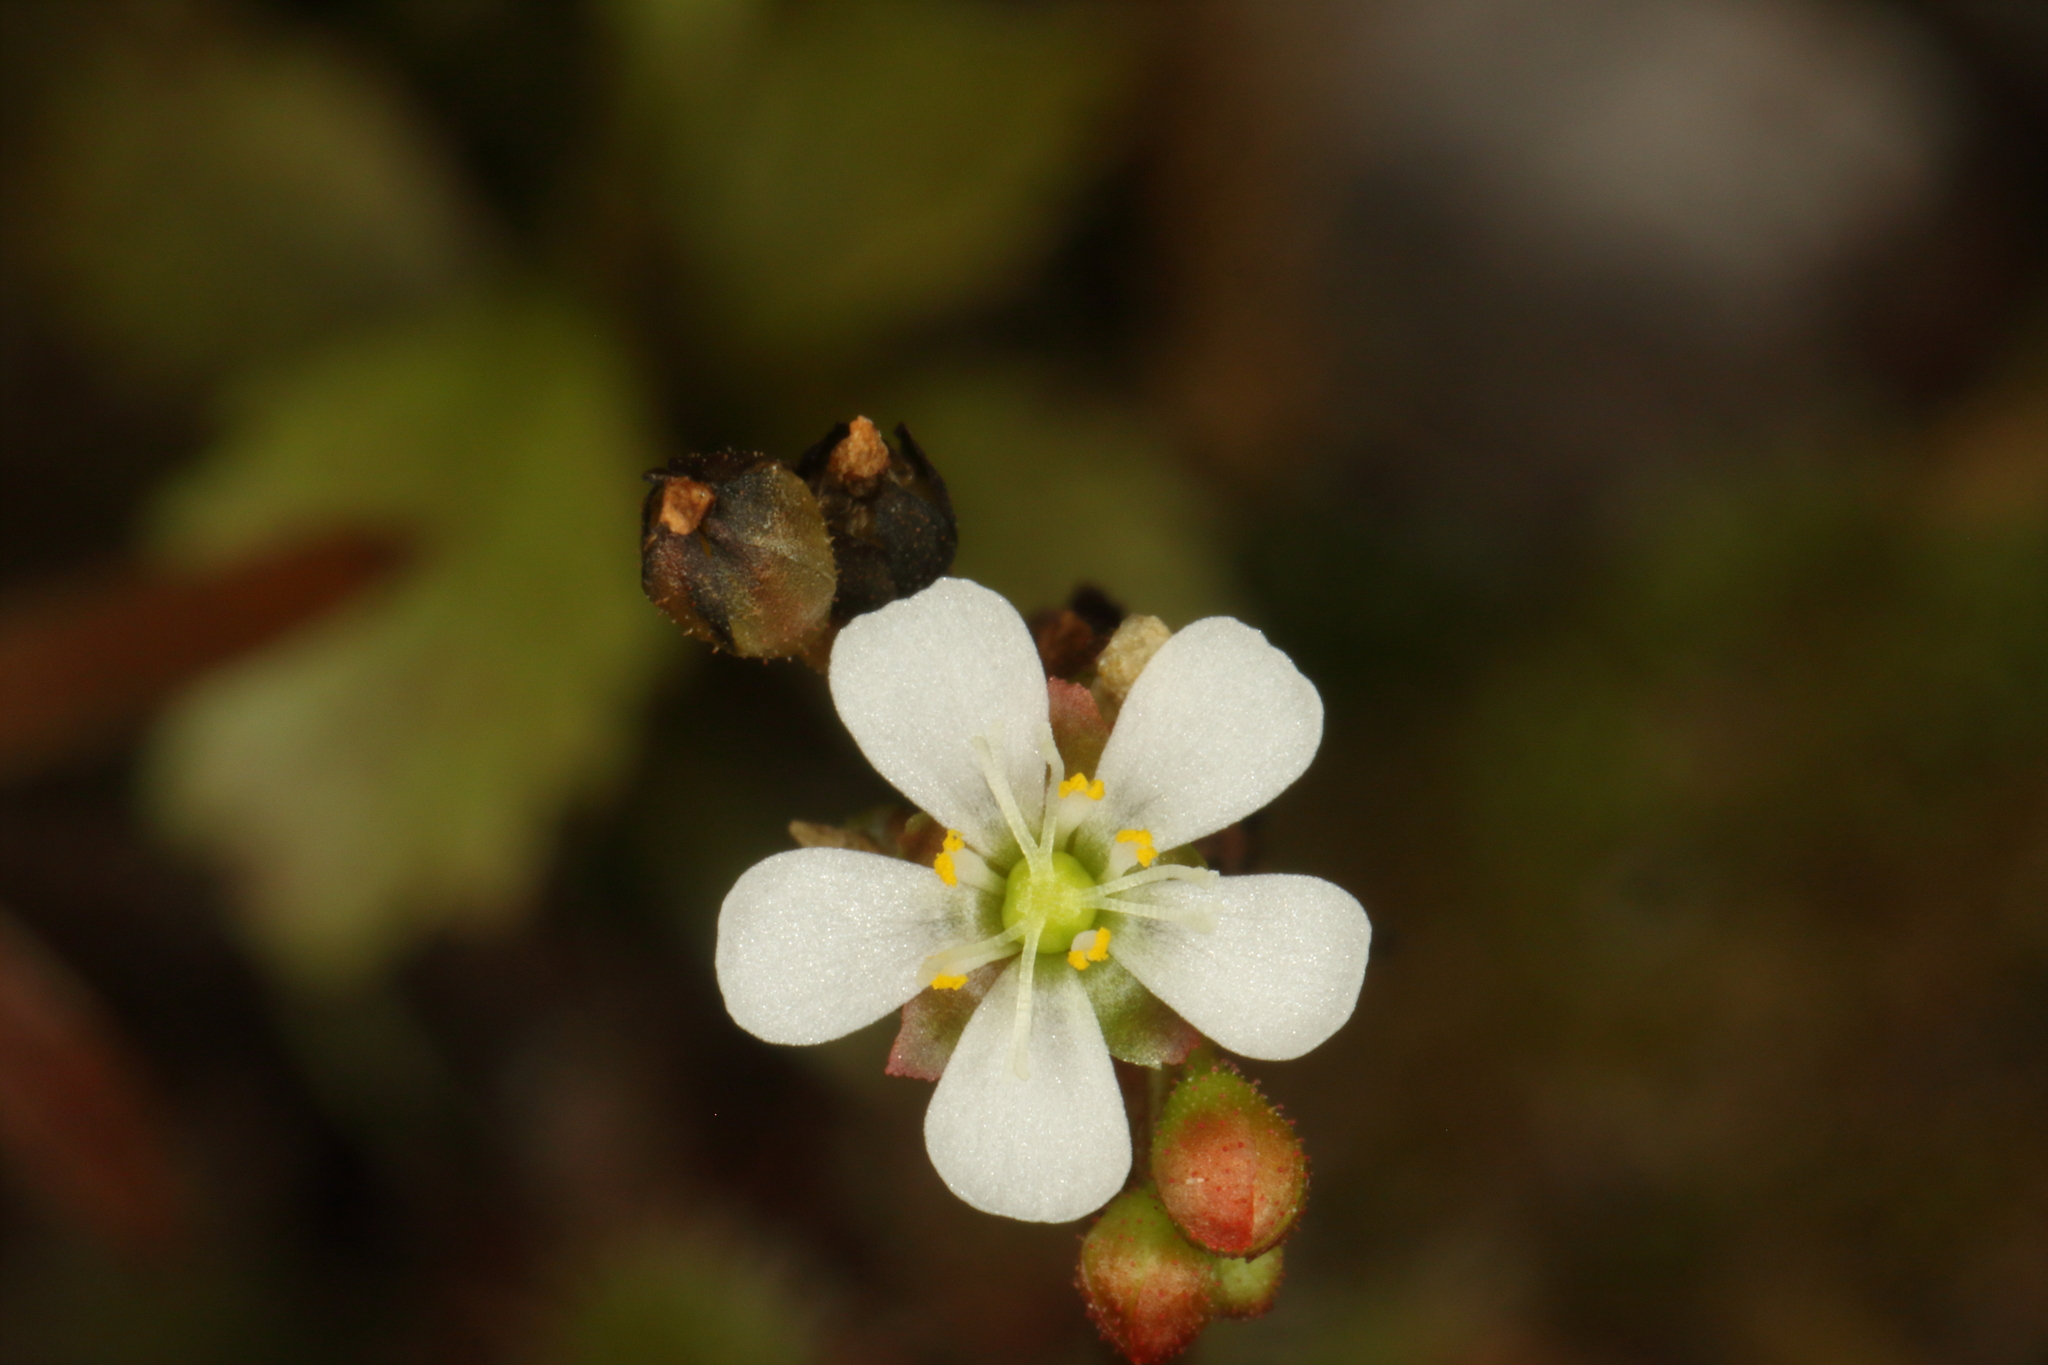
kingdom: Plantae
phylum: Tracheophyta
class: Magnoliopsida
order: Caryophyllales
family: Droseraceae
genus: Drosera
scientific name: Drosera spatulata
